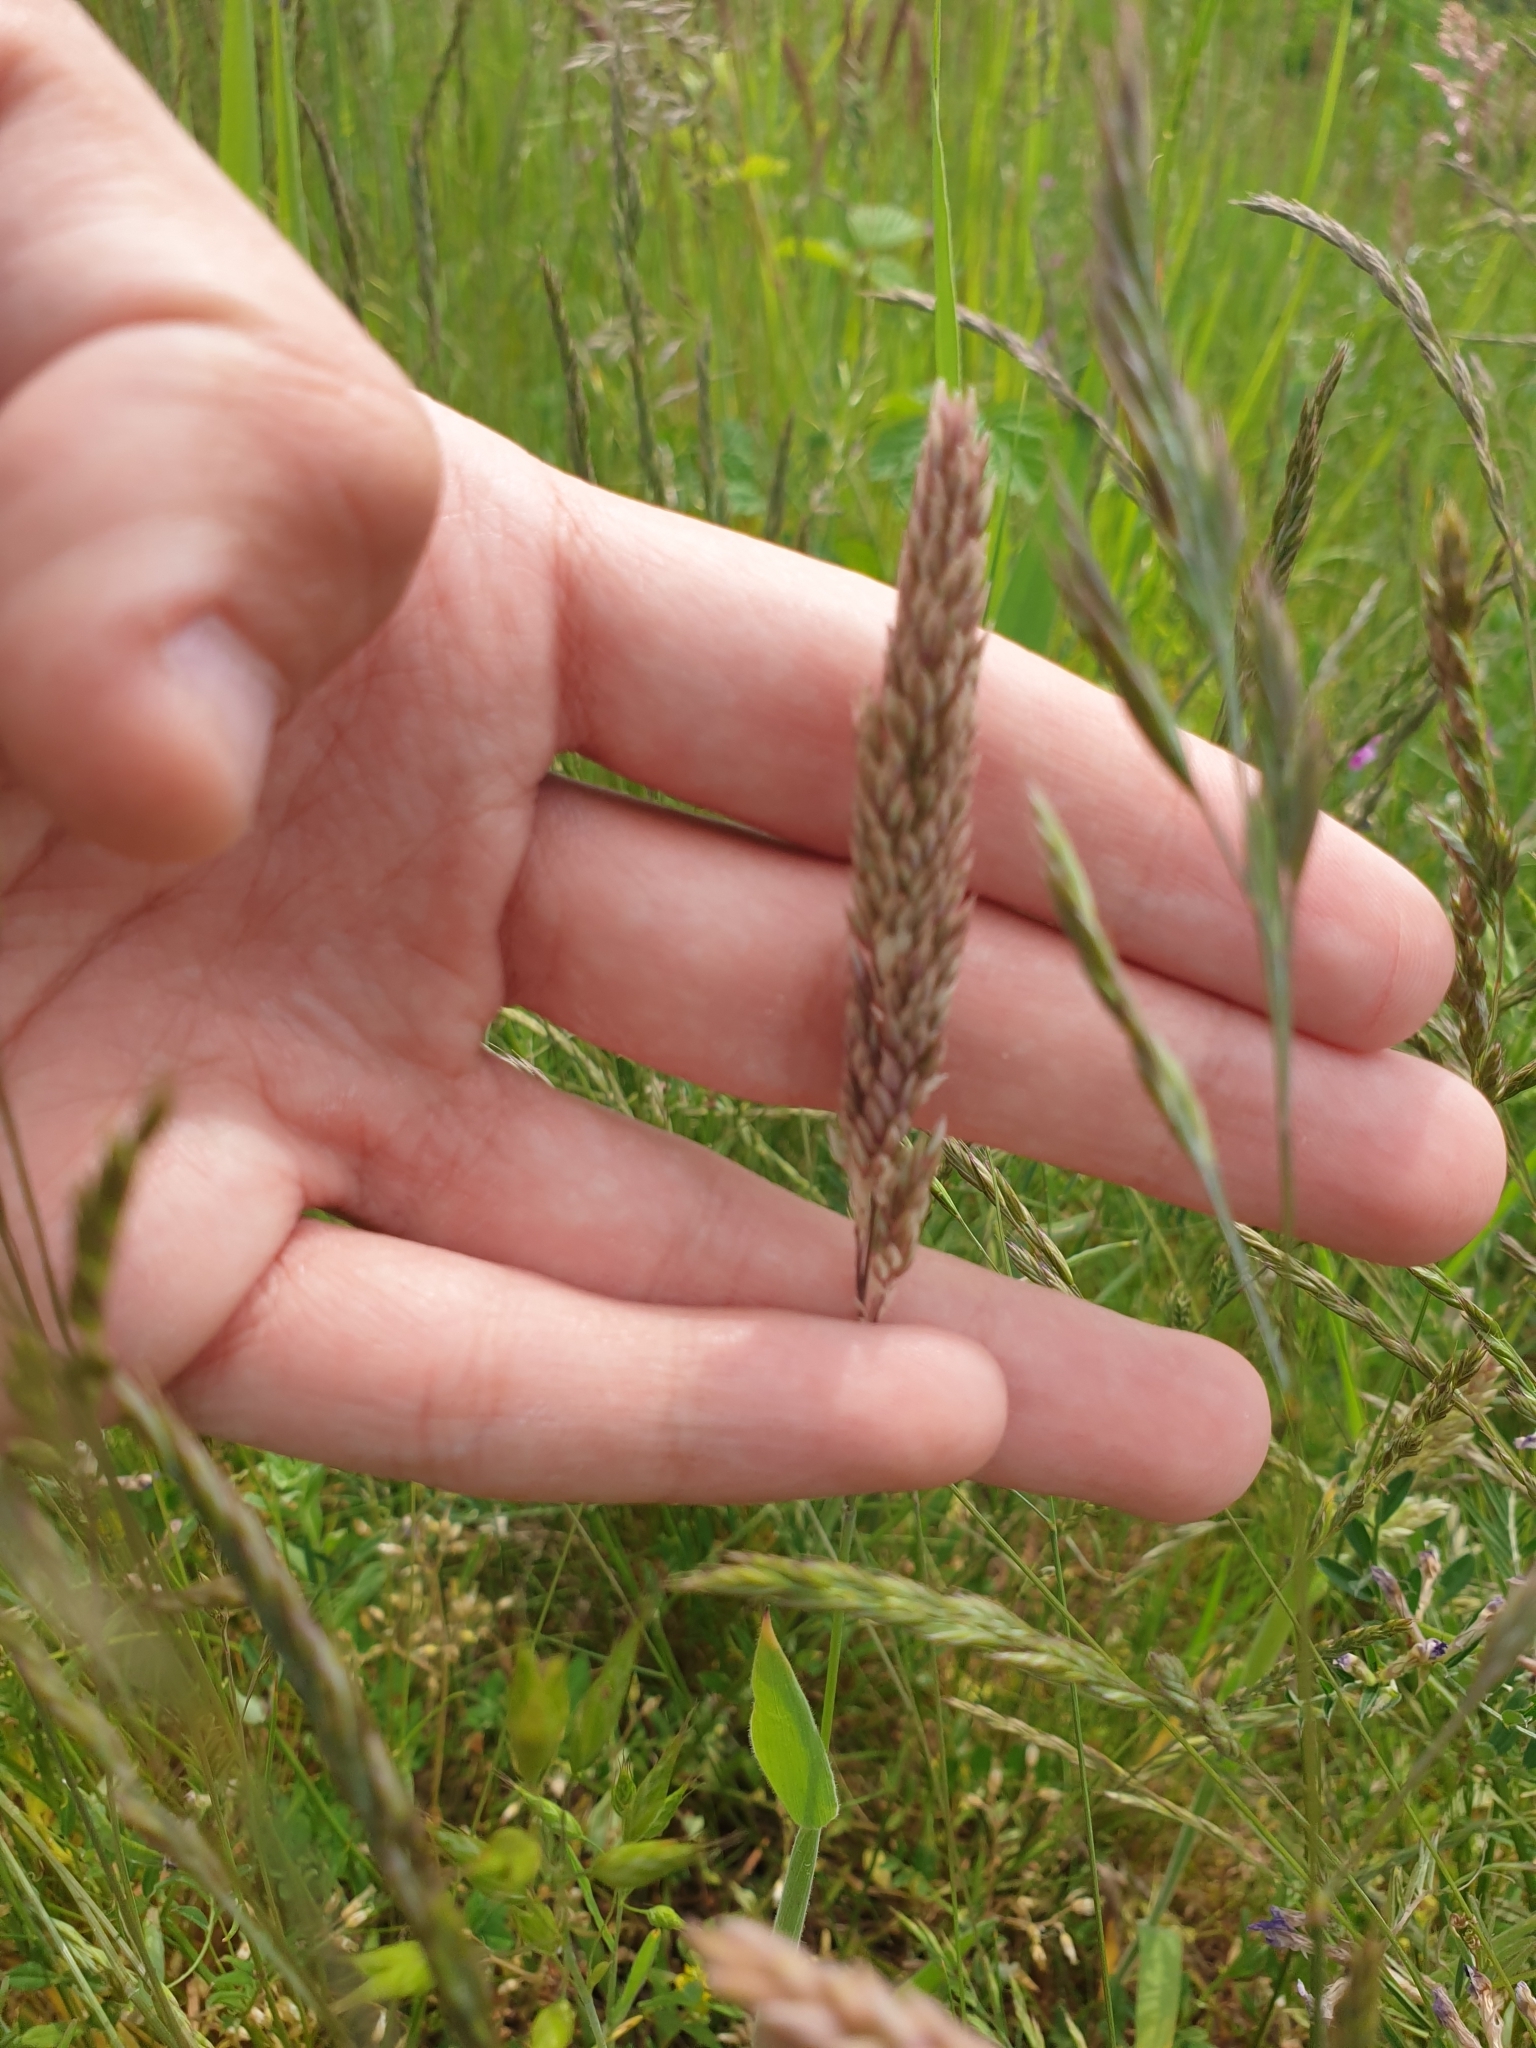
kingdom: Plantae
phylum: Tracheophyta
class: Liliopsida
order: Poales
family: Poaceae
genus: Holcus
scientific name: Holcus lanatus
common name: Yorkshire-fog
